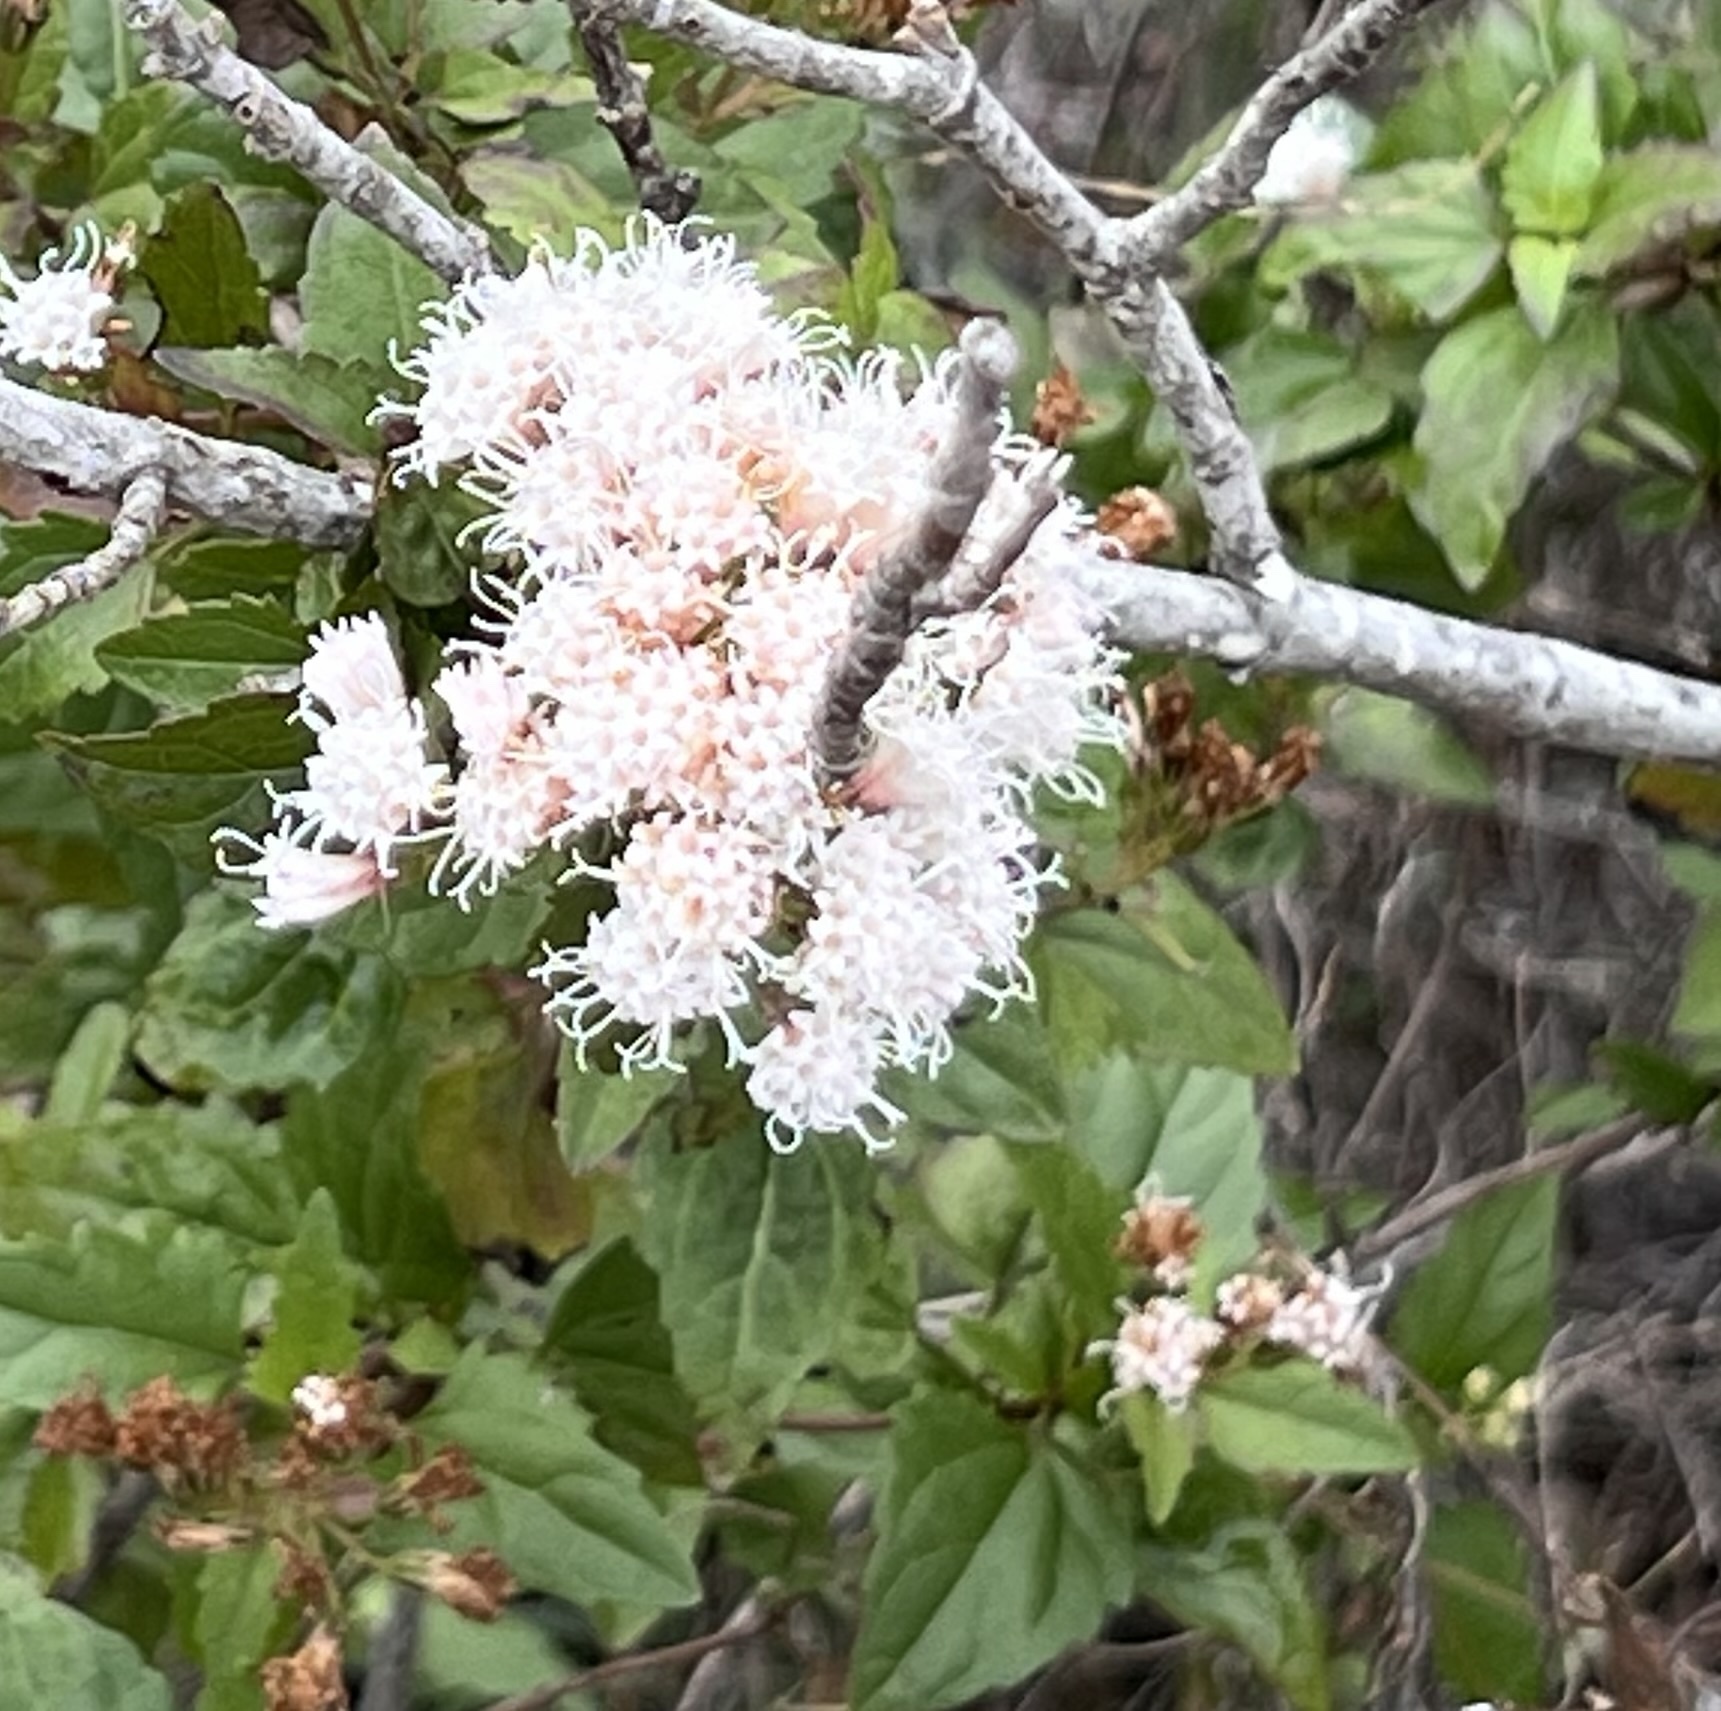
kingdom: Plantae
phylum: Tracheophyta
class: Magnoliopsida
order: Asterales
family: Asteraceae
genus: Ageratina
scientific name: Ageratina havanensis
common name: Havana snakeroot
